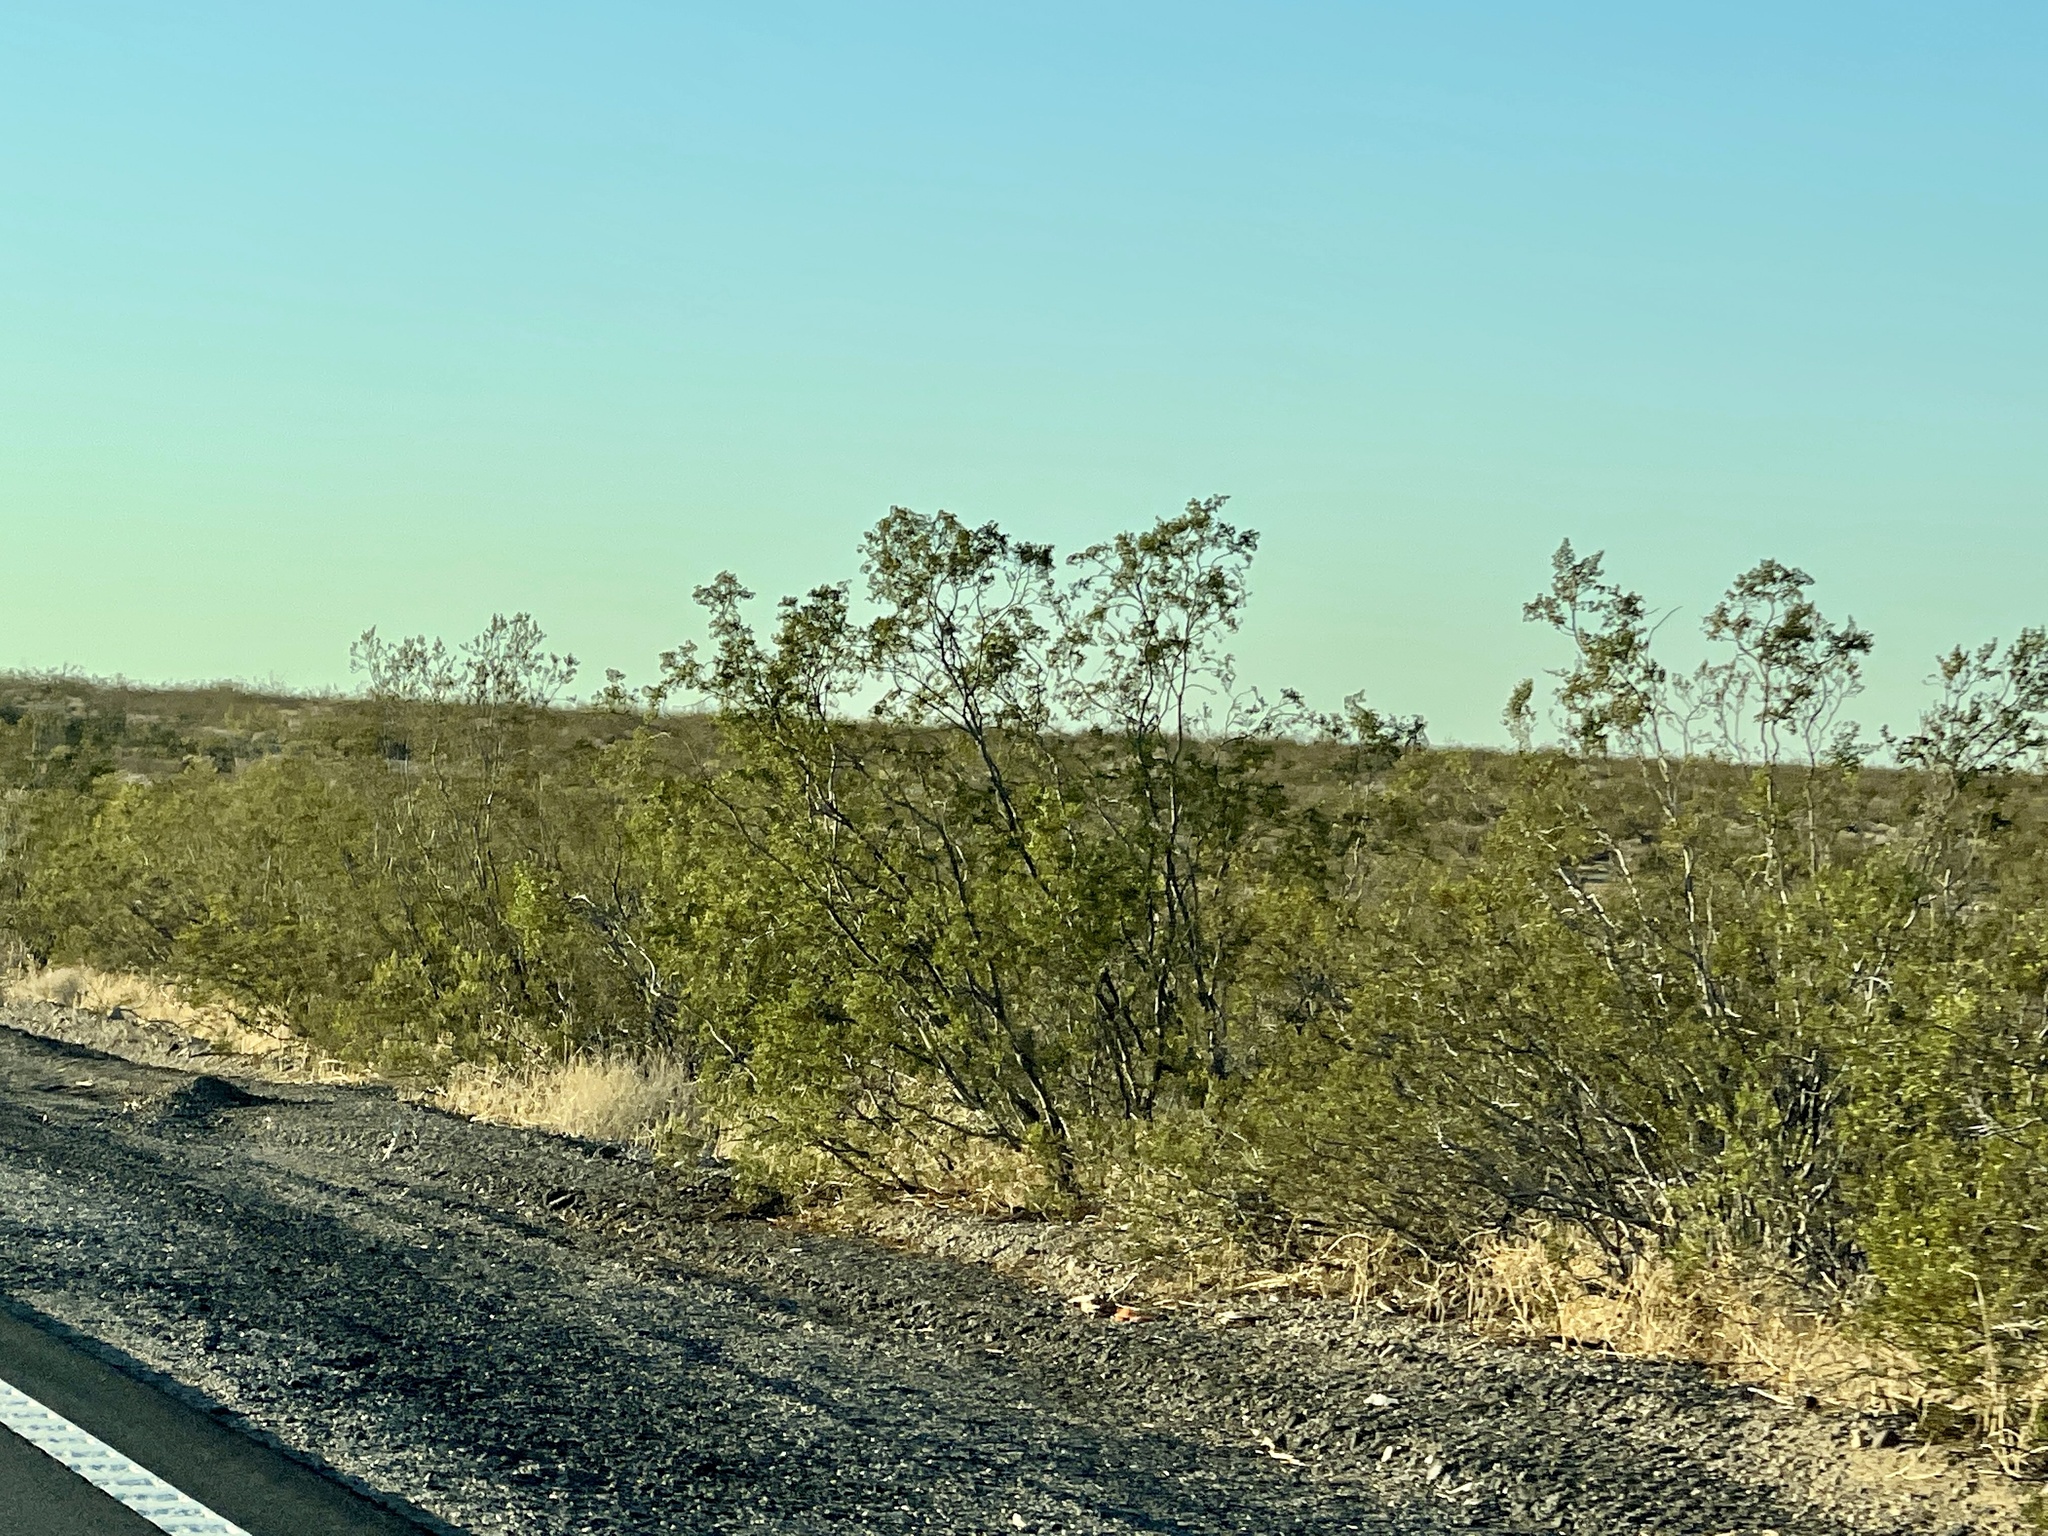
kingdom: Plantae
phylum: Tracheophyta
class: Magnoliopsida
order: Zygophyllales
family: Zygophyllaceae
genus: Larrea
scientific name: Larrea tridentata
